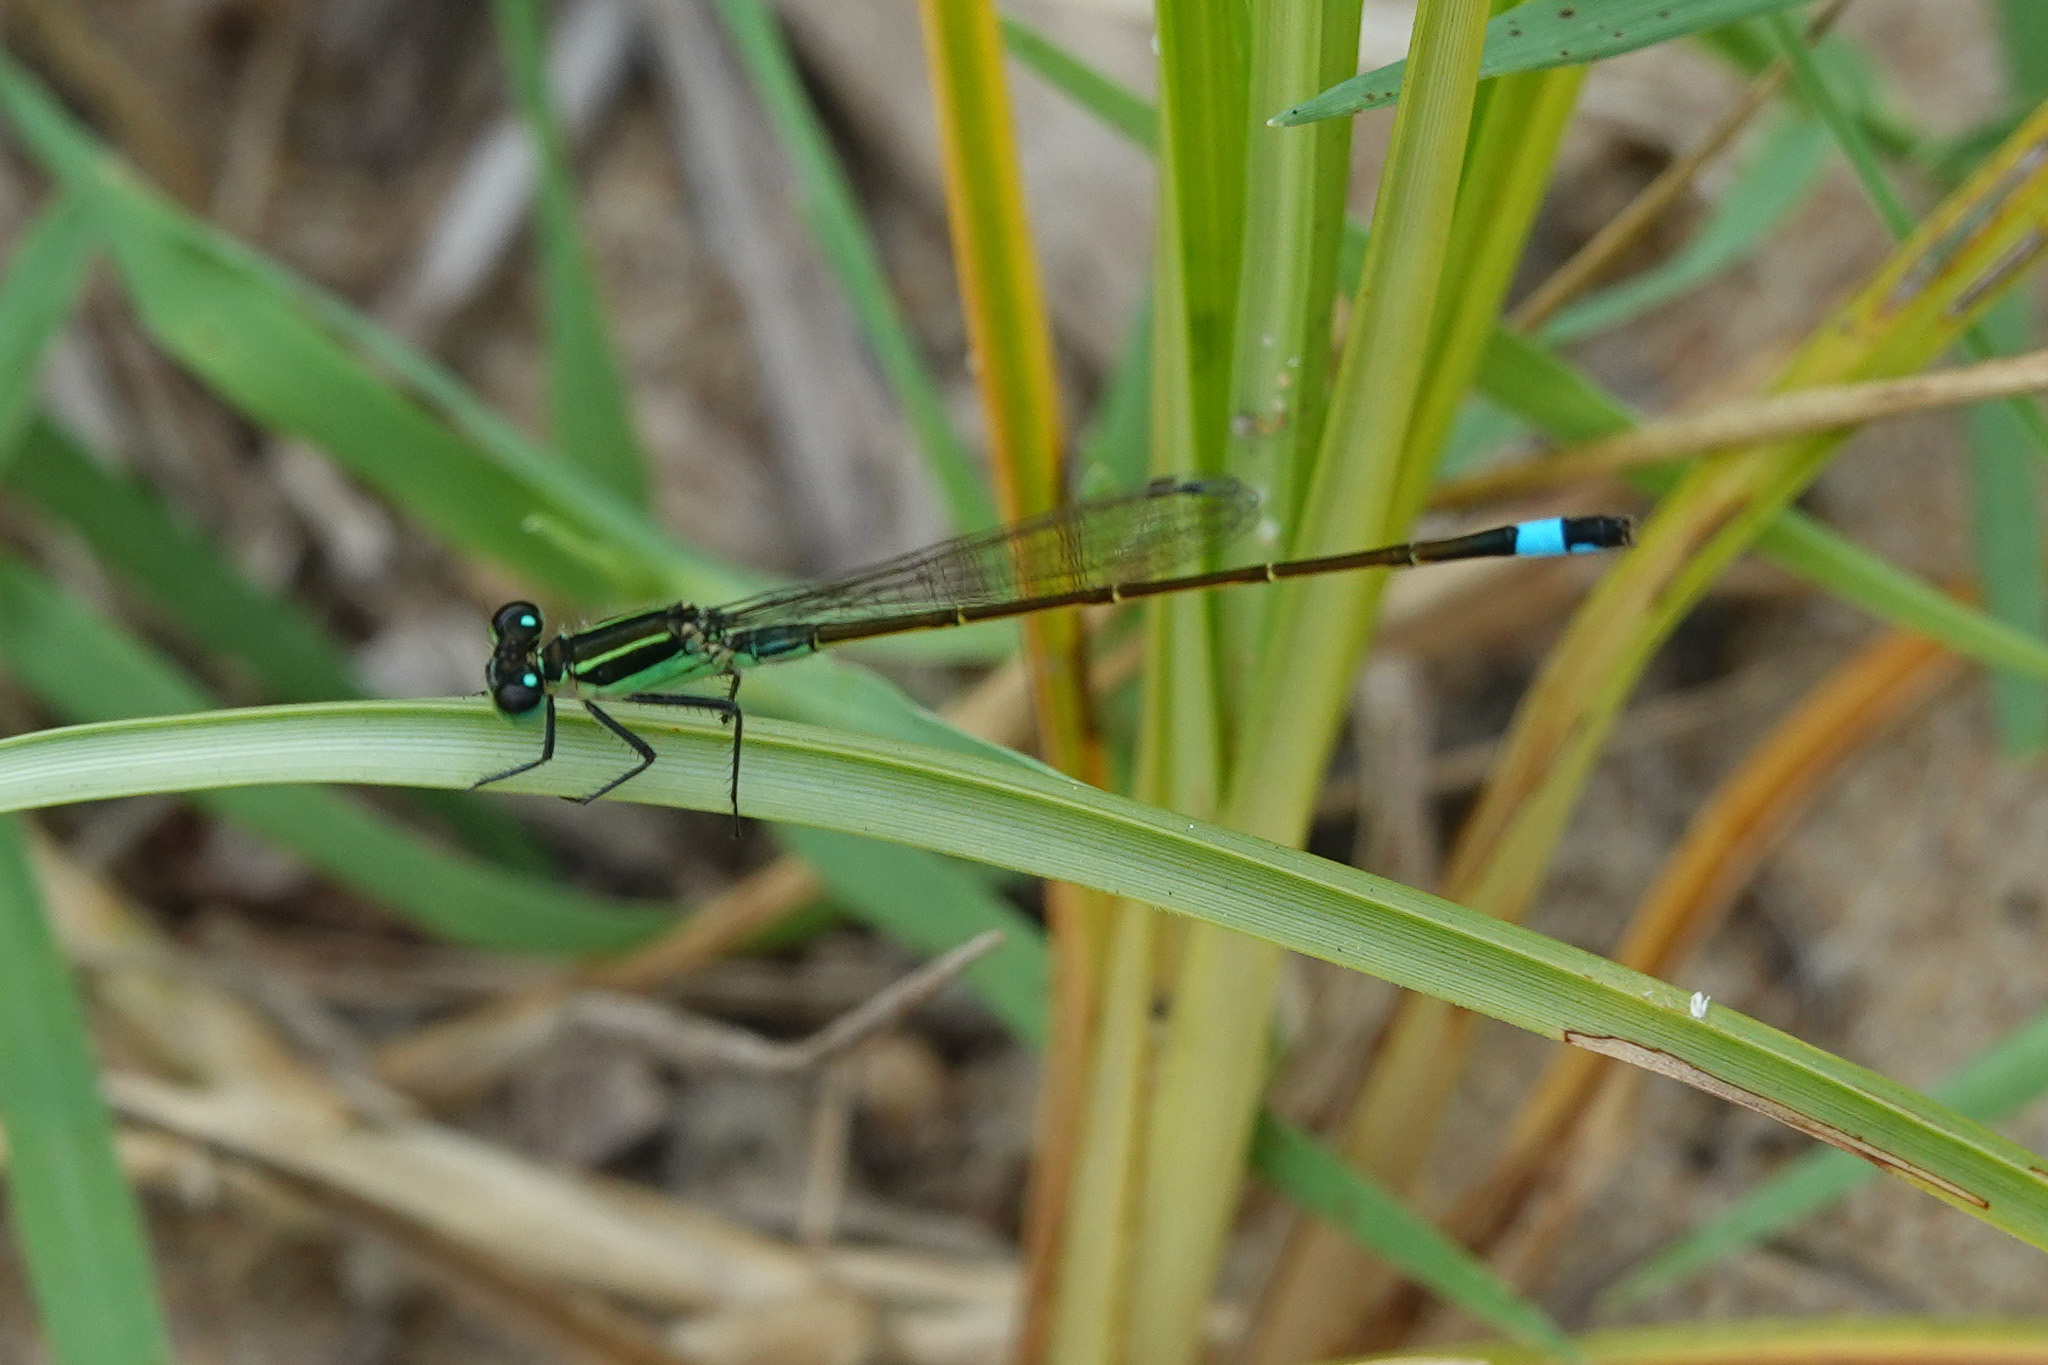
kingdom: Animalia
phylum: Arthropoda
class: Insecta
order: Odonata
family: Coenagrionidae
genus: Ischnura
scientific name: Ischnura ramburii
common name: Rambur's forktail
